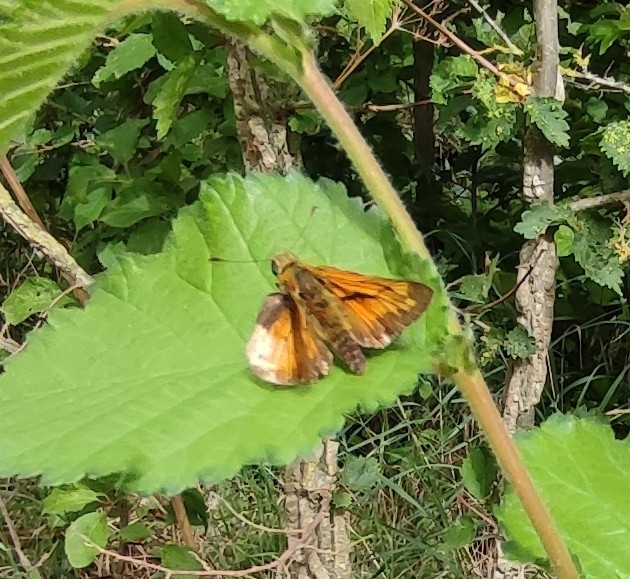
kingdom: Animalia
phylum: Arthropoda
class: Insecta
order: Lepidoptera
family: Hesperiidae
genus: Ochlodes
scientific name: Ochlodes venata
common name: Large skipper
